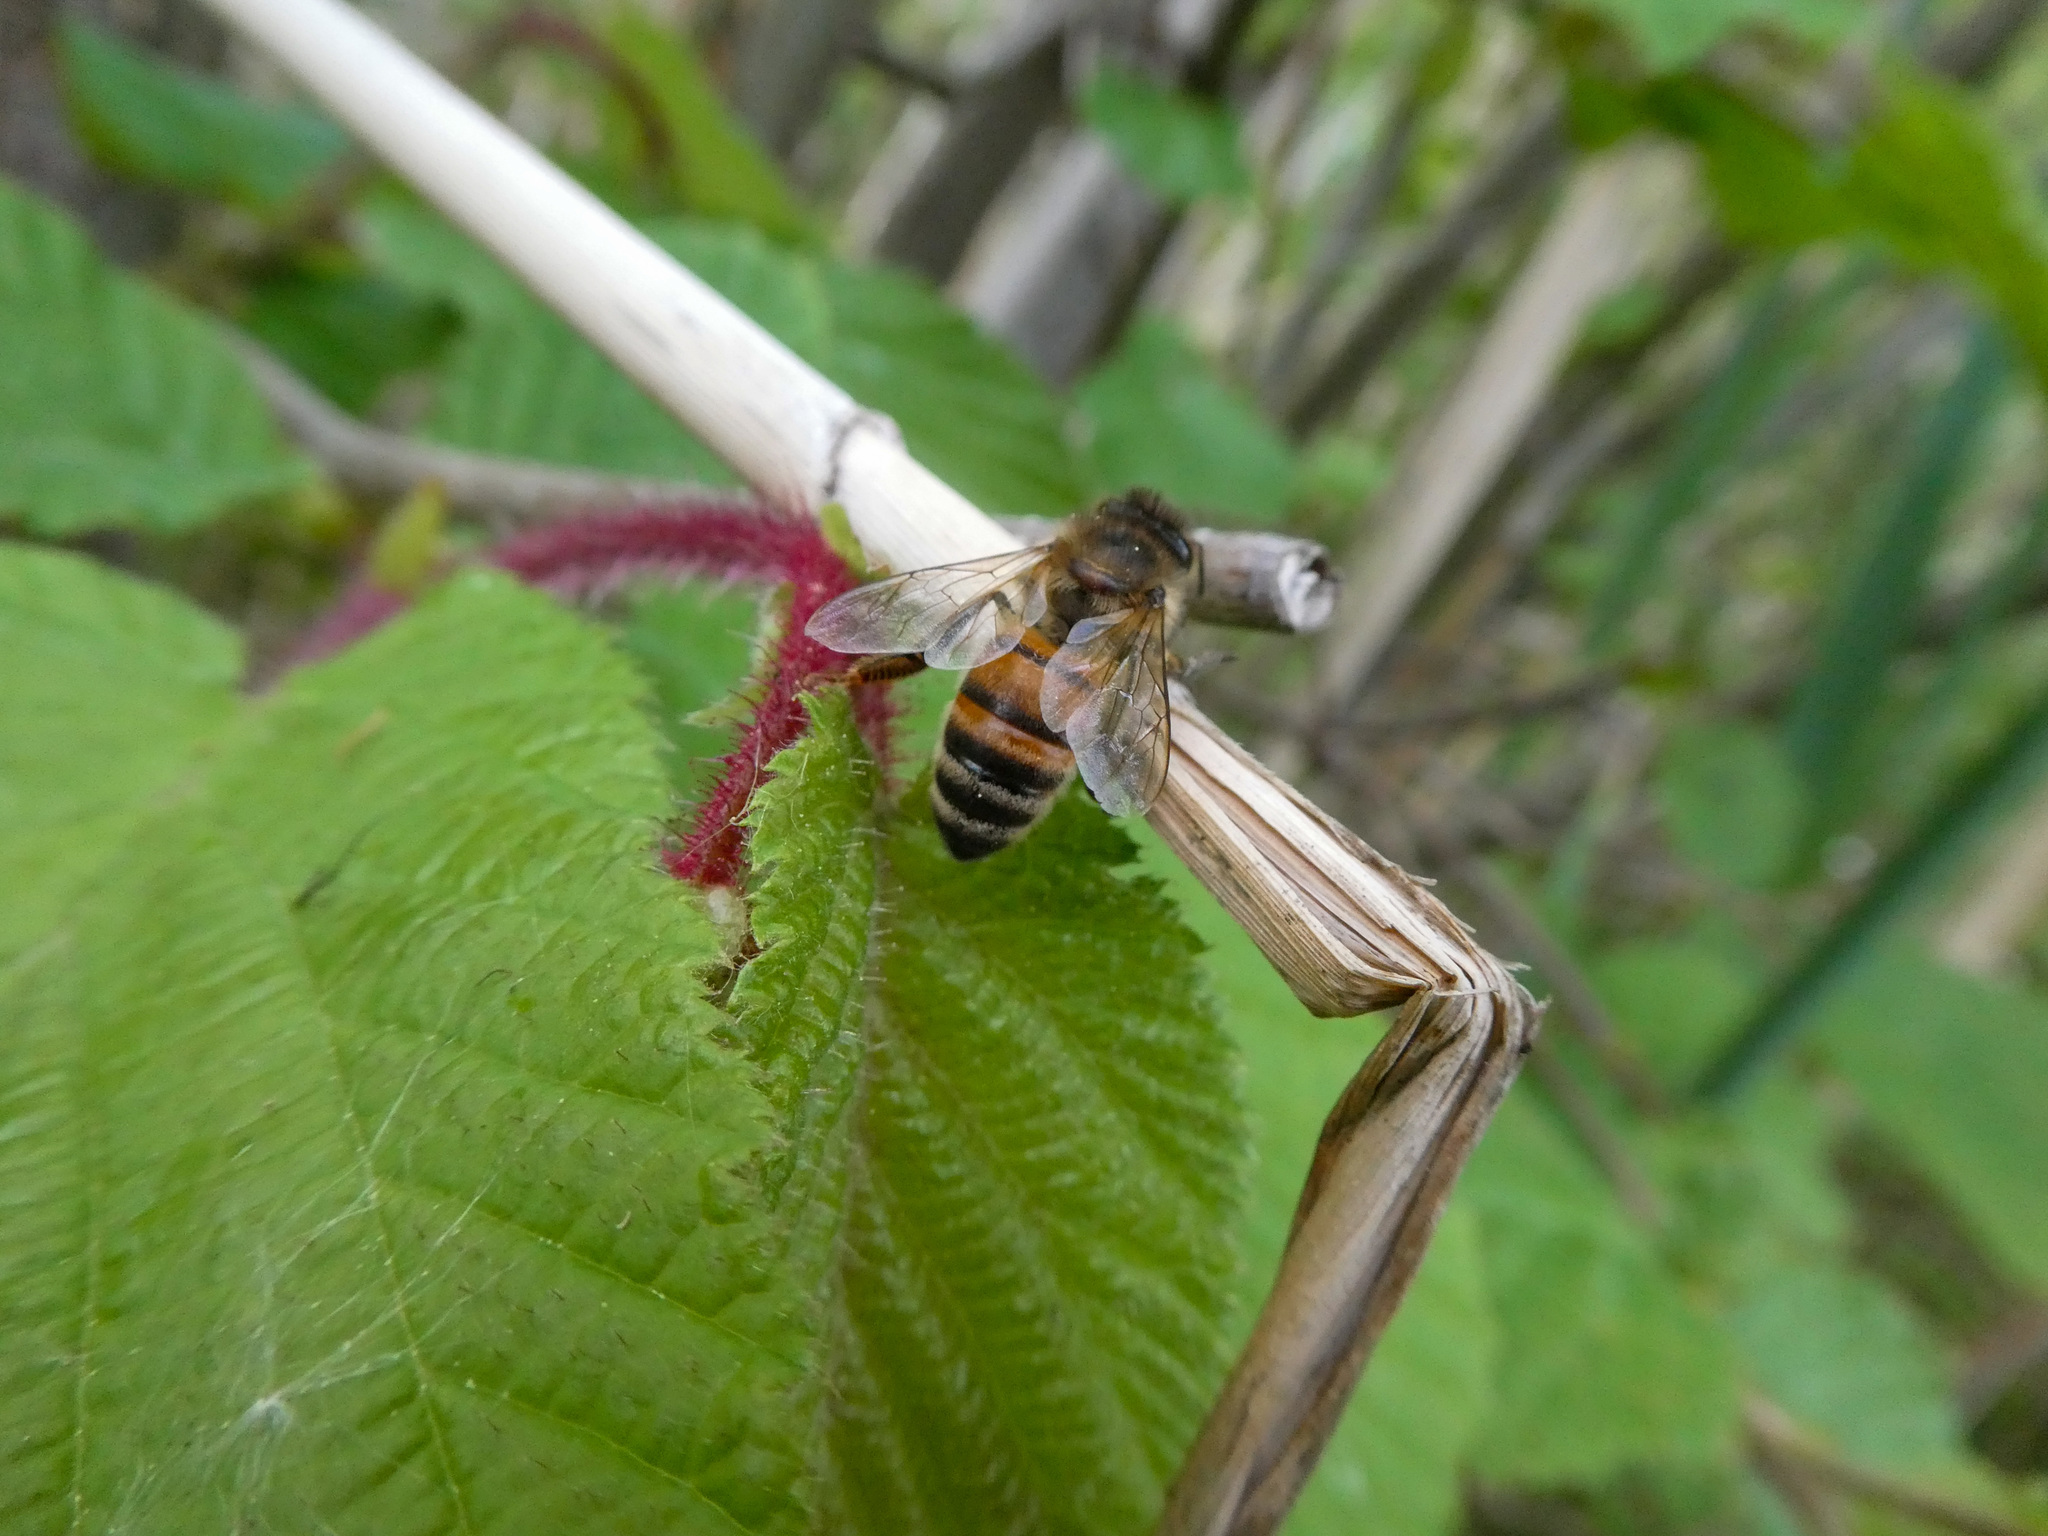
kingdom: Animalia
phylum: Arthropoda
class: Insecta
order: Hymenoptera
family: Apidae
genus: Apis
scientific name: Apis mellifera
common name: Honey bee
